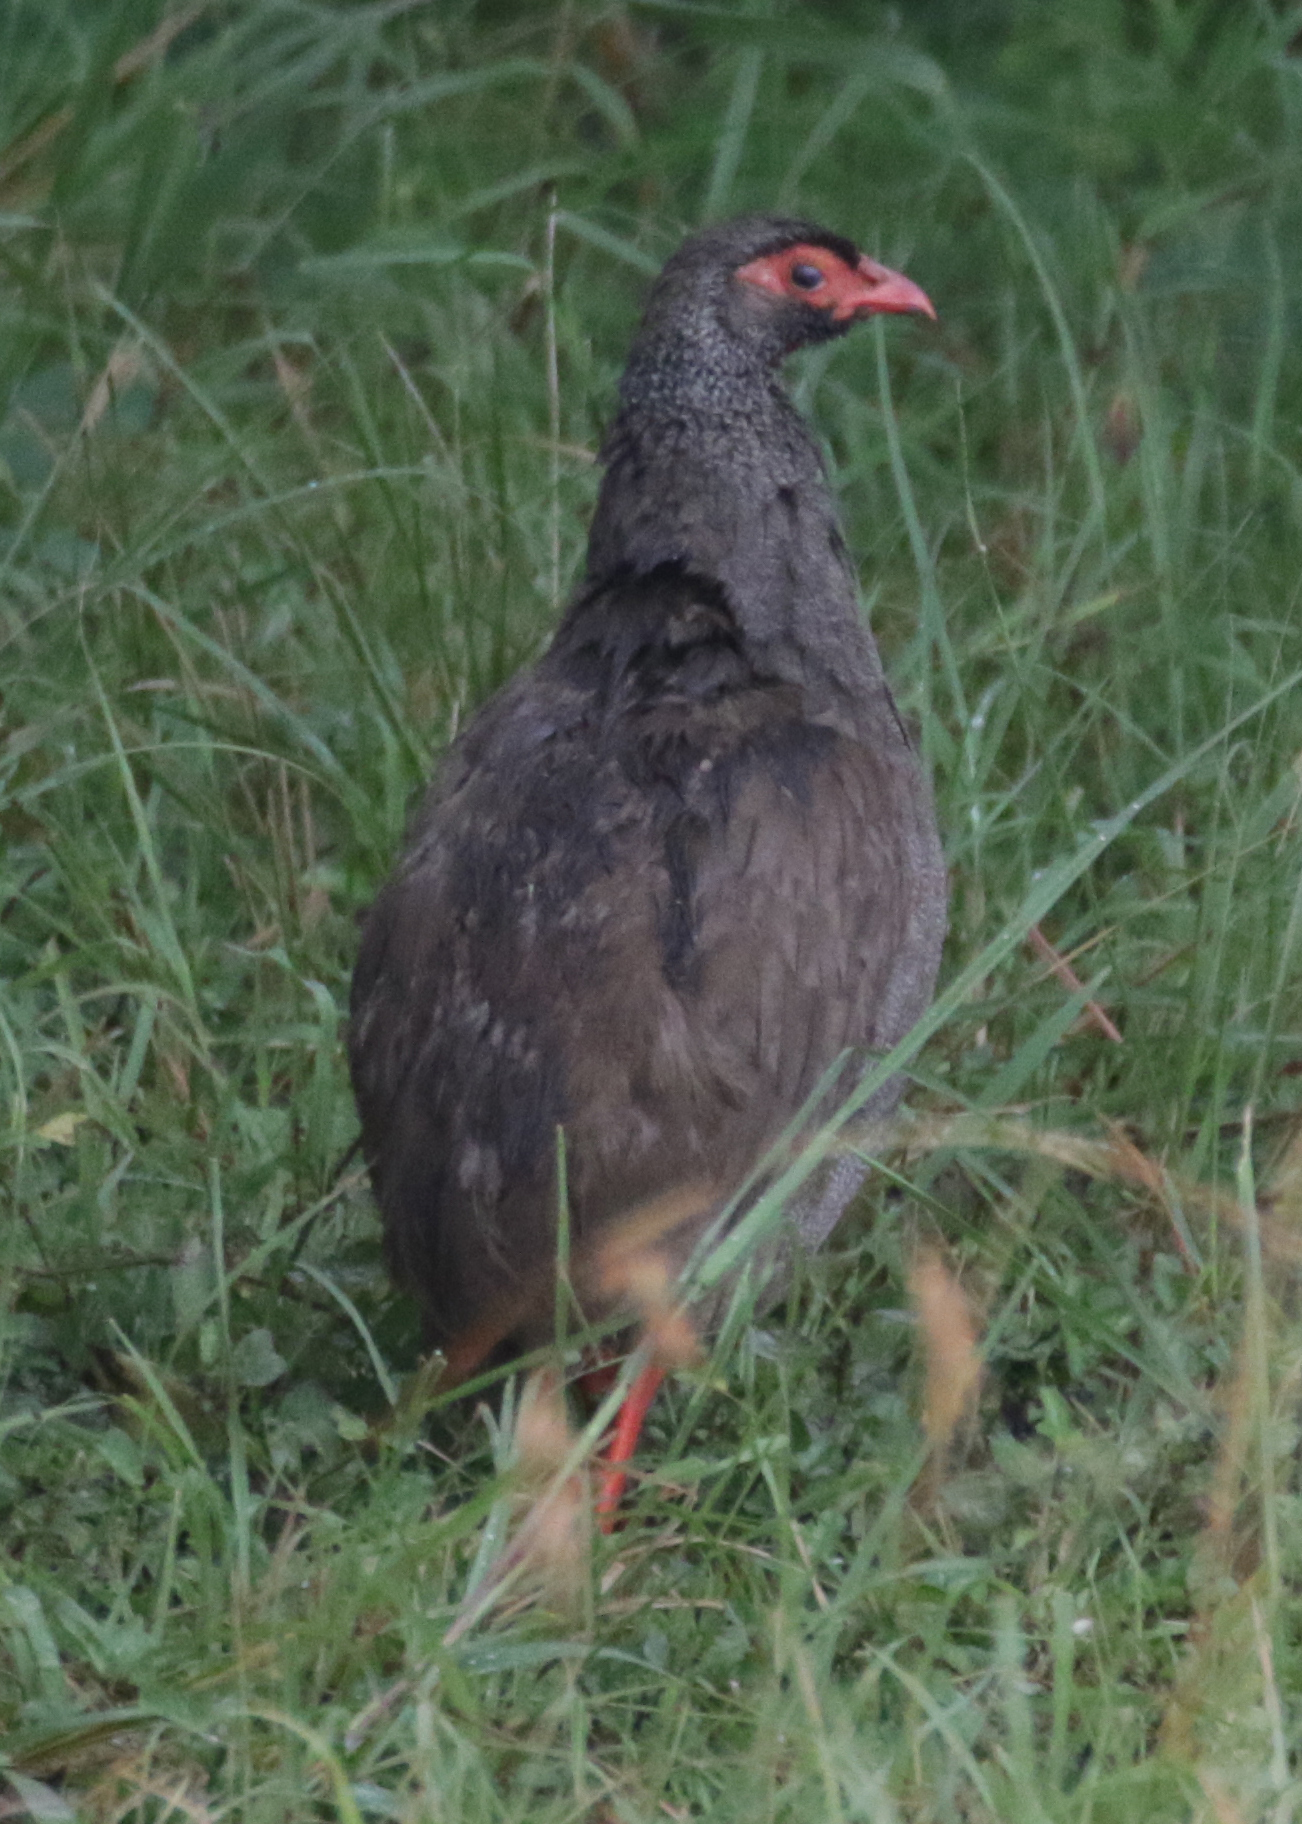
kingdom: Animalia
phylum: Chordata
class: Aves
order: Galliformes
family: Phasianidae
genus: Pternistis
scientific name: Pternistis afer
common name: Red-necked spurfowl
